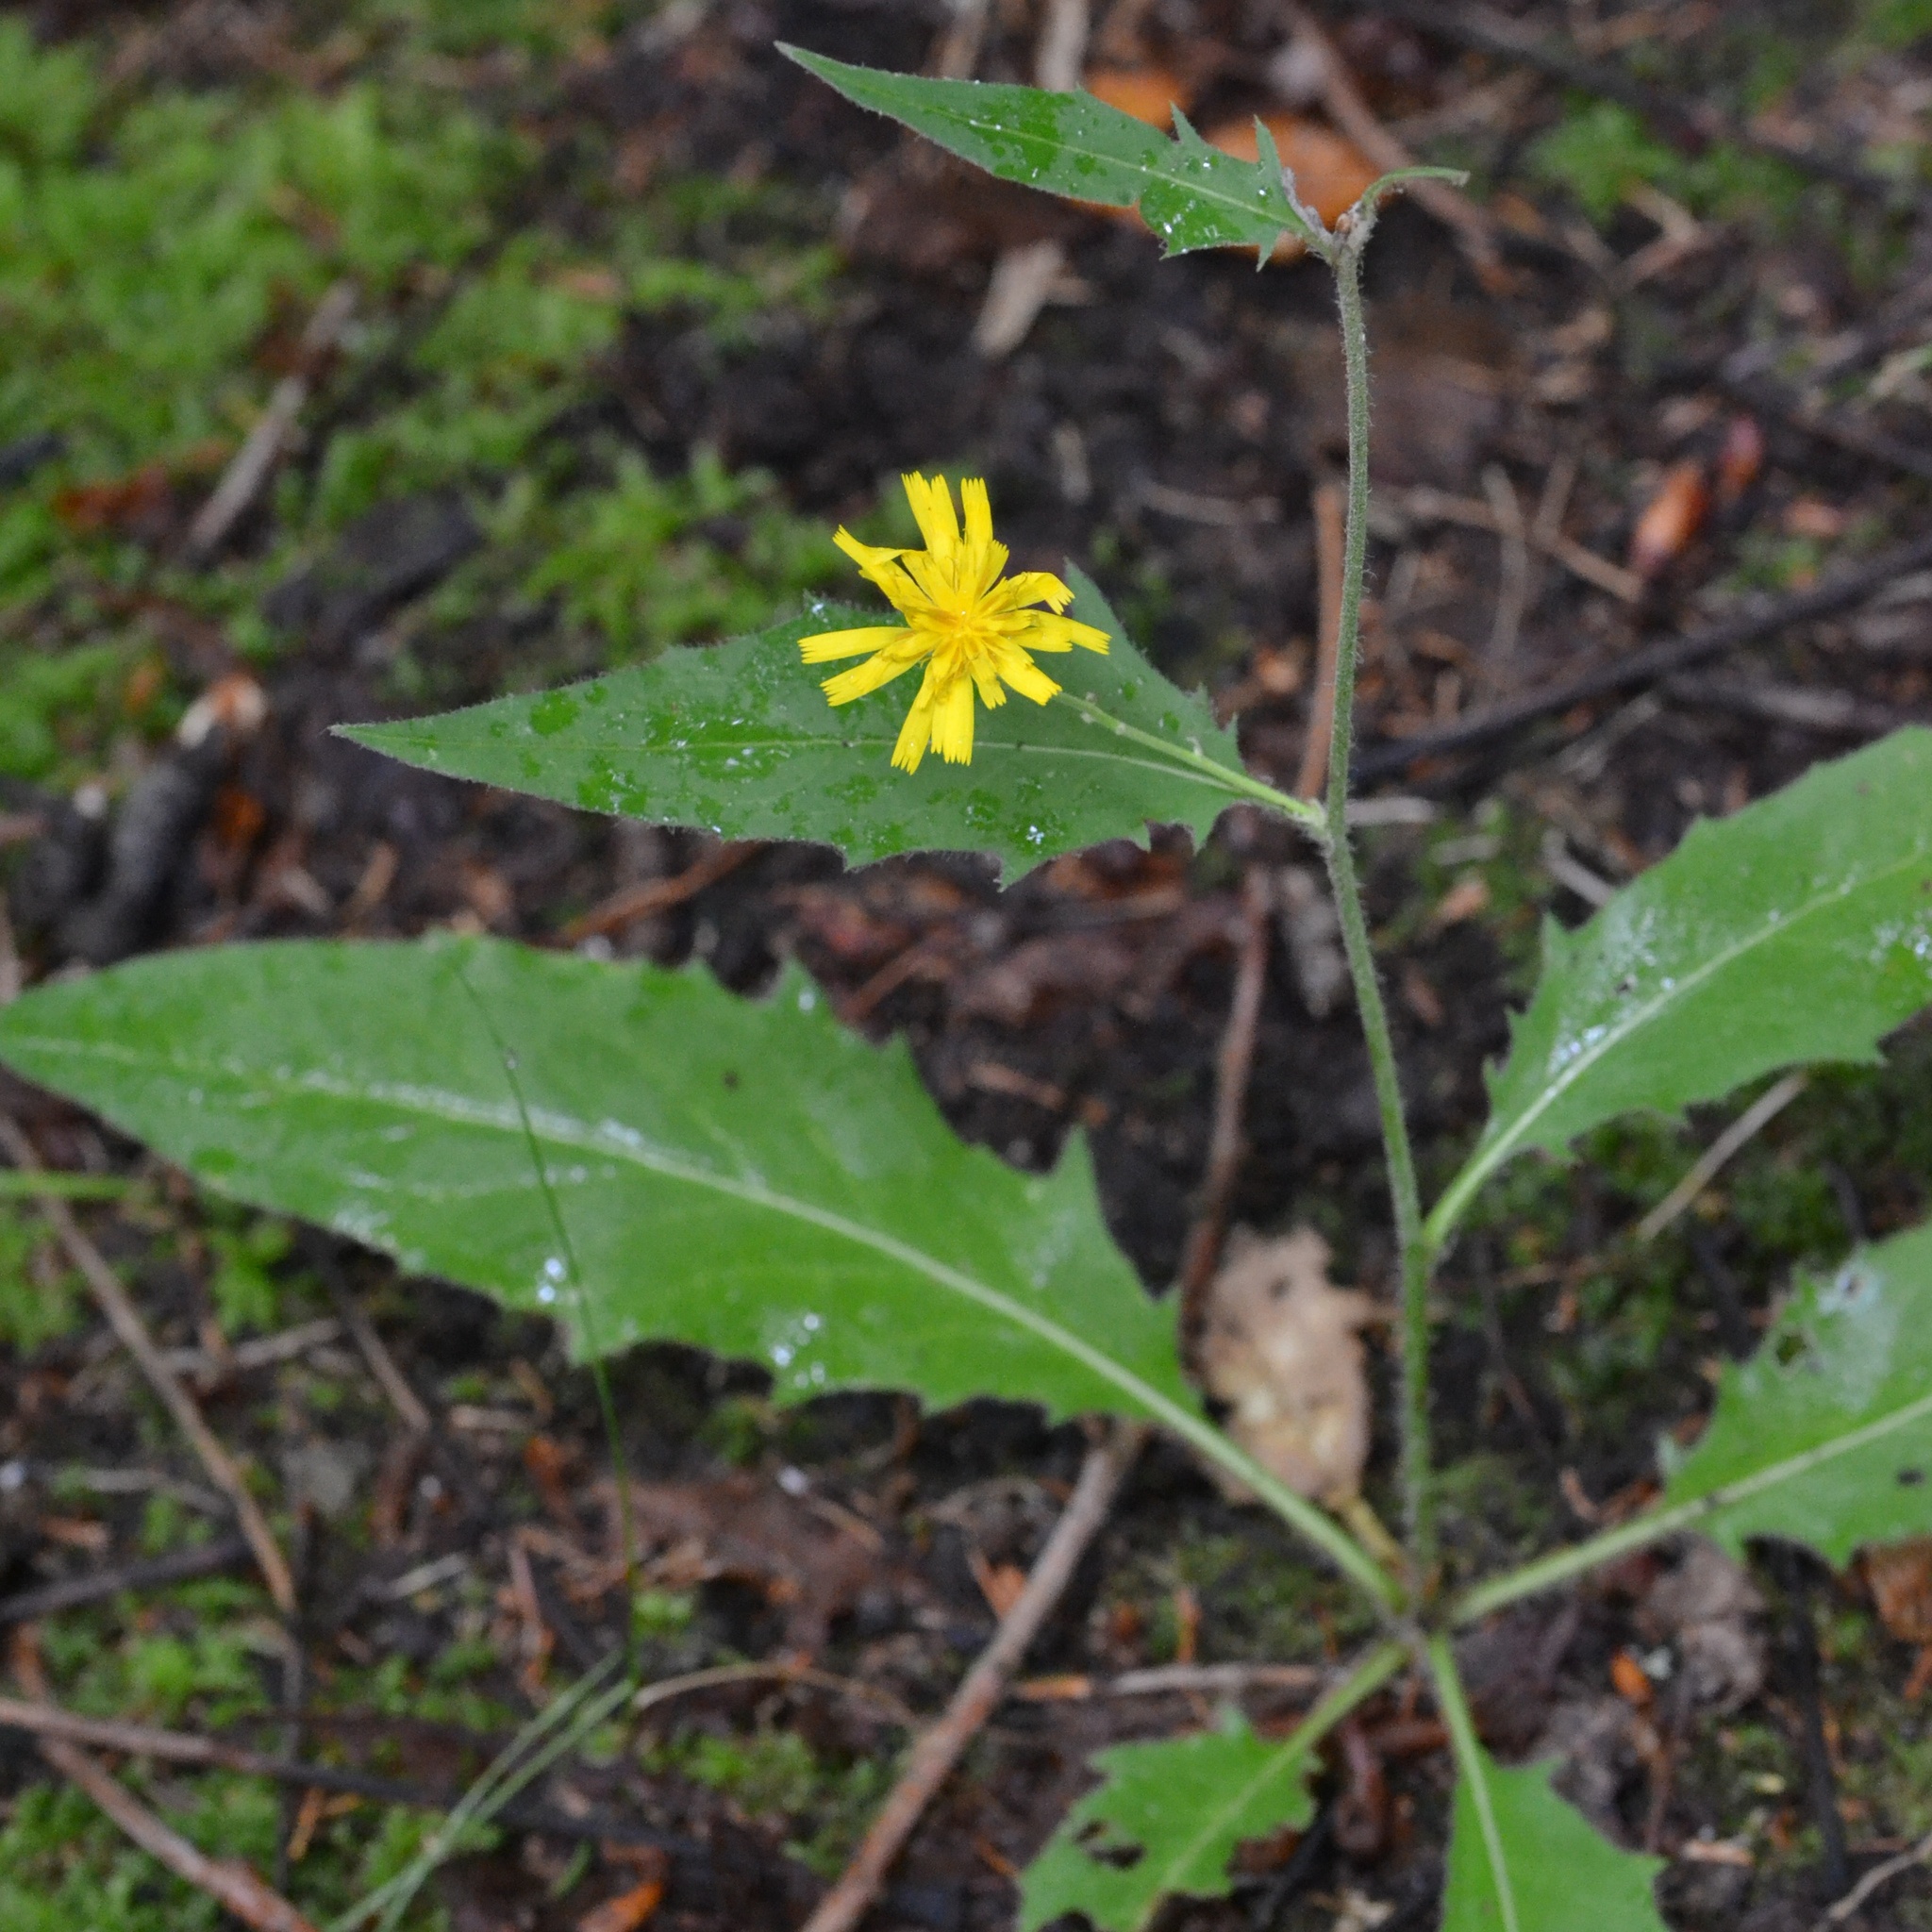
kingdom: Plantae
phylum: Tracheophyta
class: Magnoliopsida
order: Asterales
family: Asteraceae
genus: Hieracium
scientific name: Hieracium lachenalii
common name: Common hawkweed
